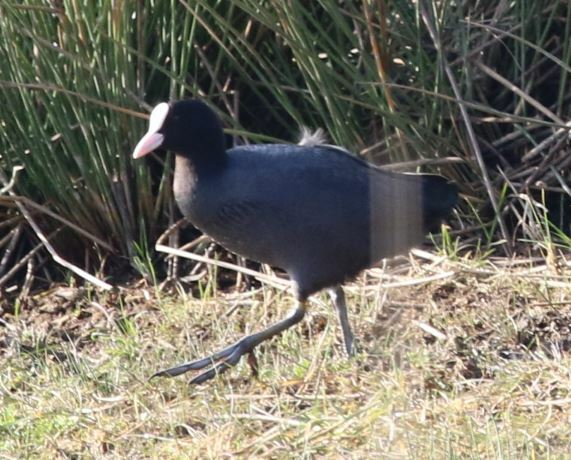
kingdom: Animalia
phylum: Chordata
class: Aves
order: Gruiformes
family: Rallidae
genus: Fulica
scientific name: Fulica atra
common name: Eurasian coot
